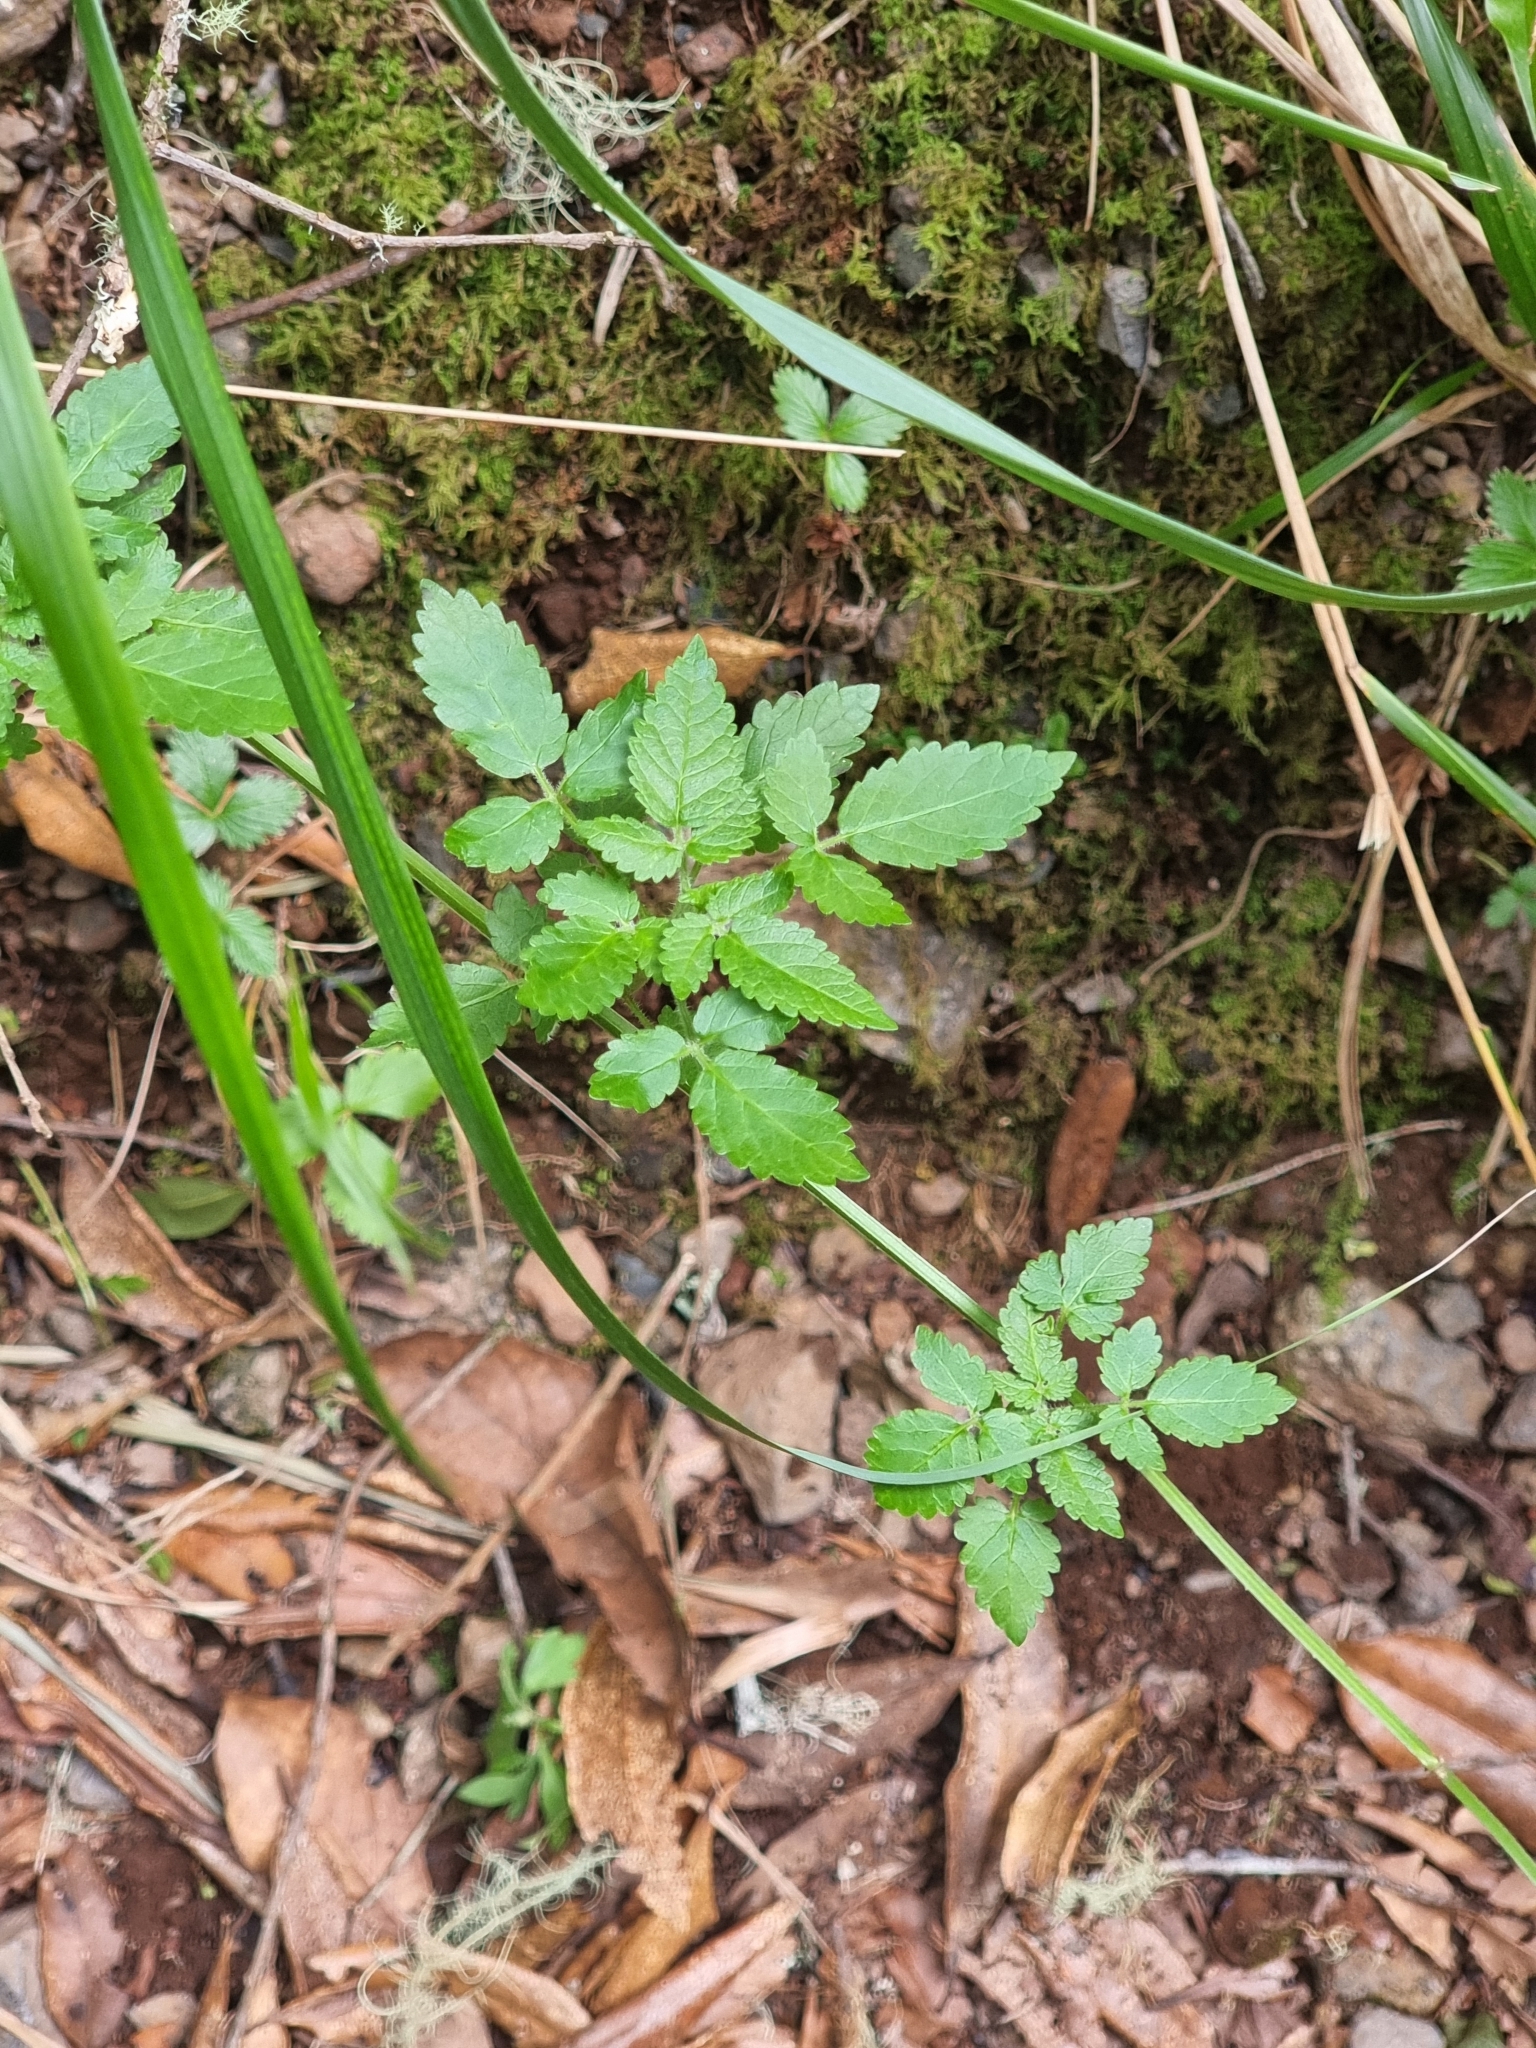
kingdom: Plantae
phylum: Tracheophyta
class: Magnoliopsida
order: Lamiales
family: Lamiaceae
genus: Cedronella
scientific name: Cedronella canariensis
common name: Canary islands balm
